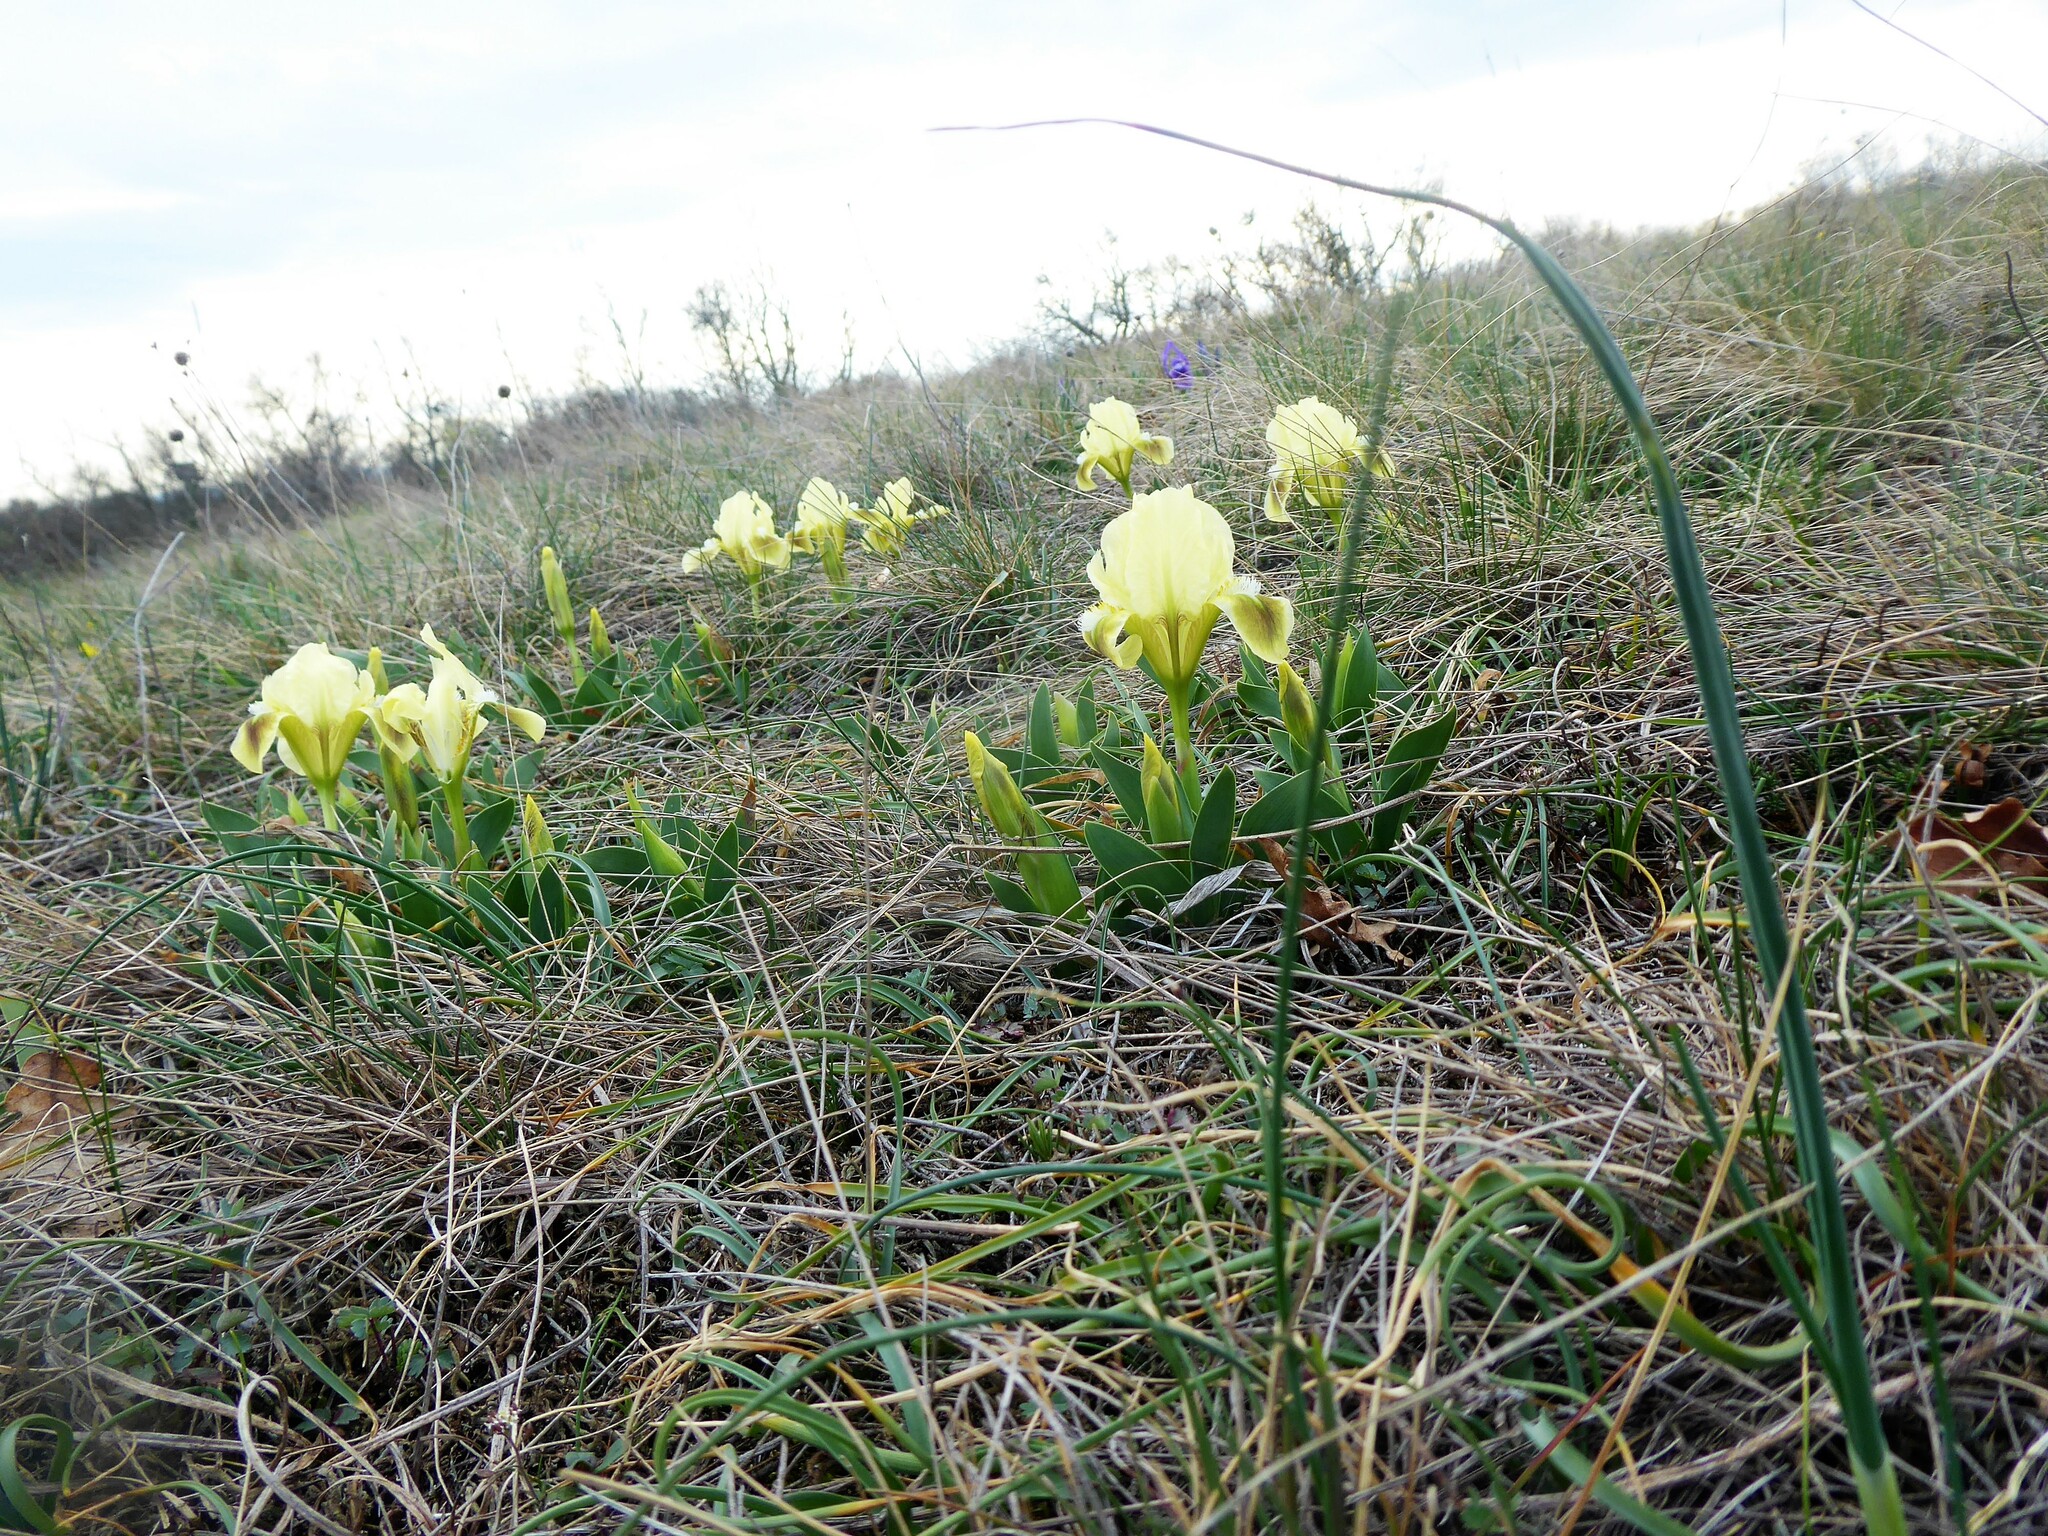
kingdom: Plantae
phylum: Tracheophyta
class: Liliopsida
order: Asparagales
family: Iridaceae
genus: Iris
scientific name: Iris pumila
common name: Dwarf iris
